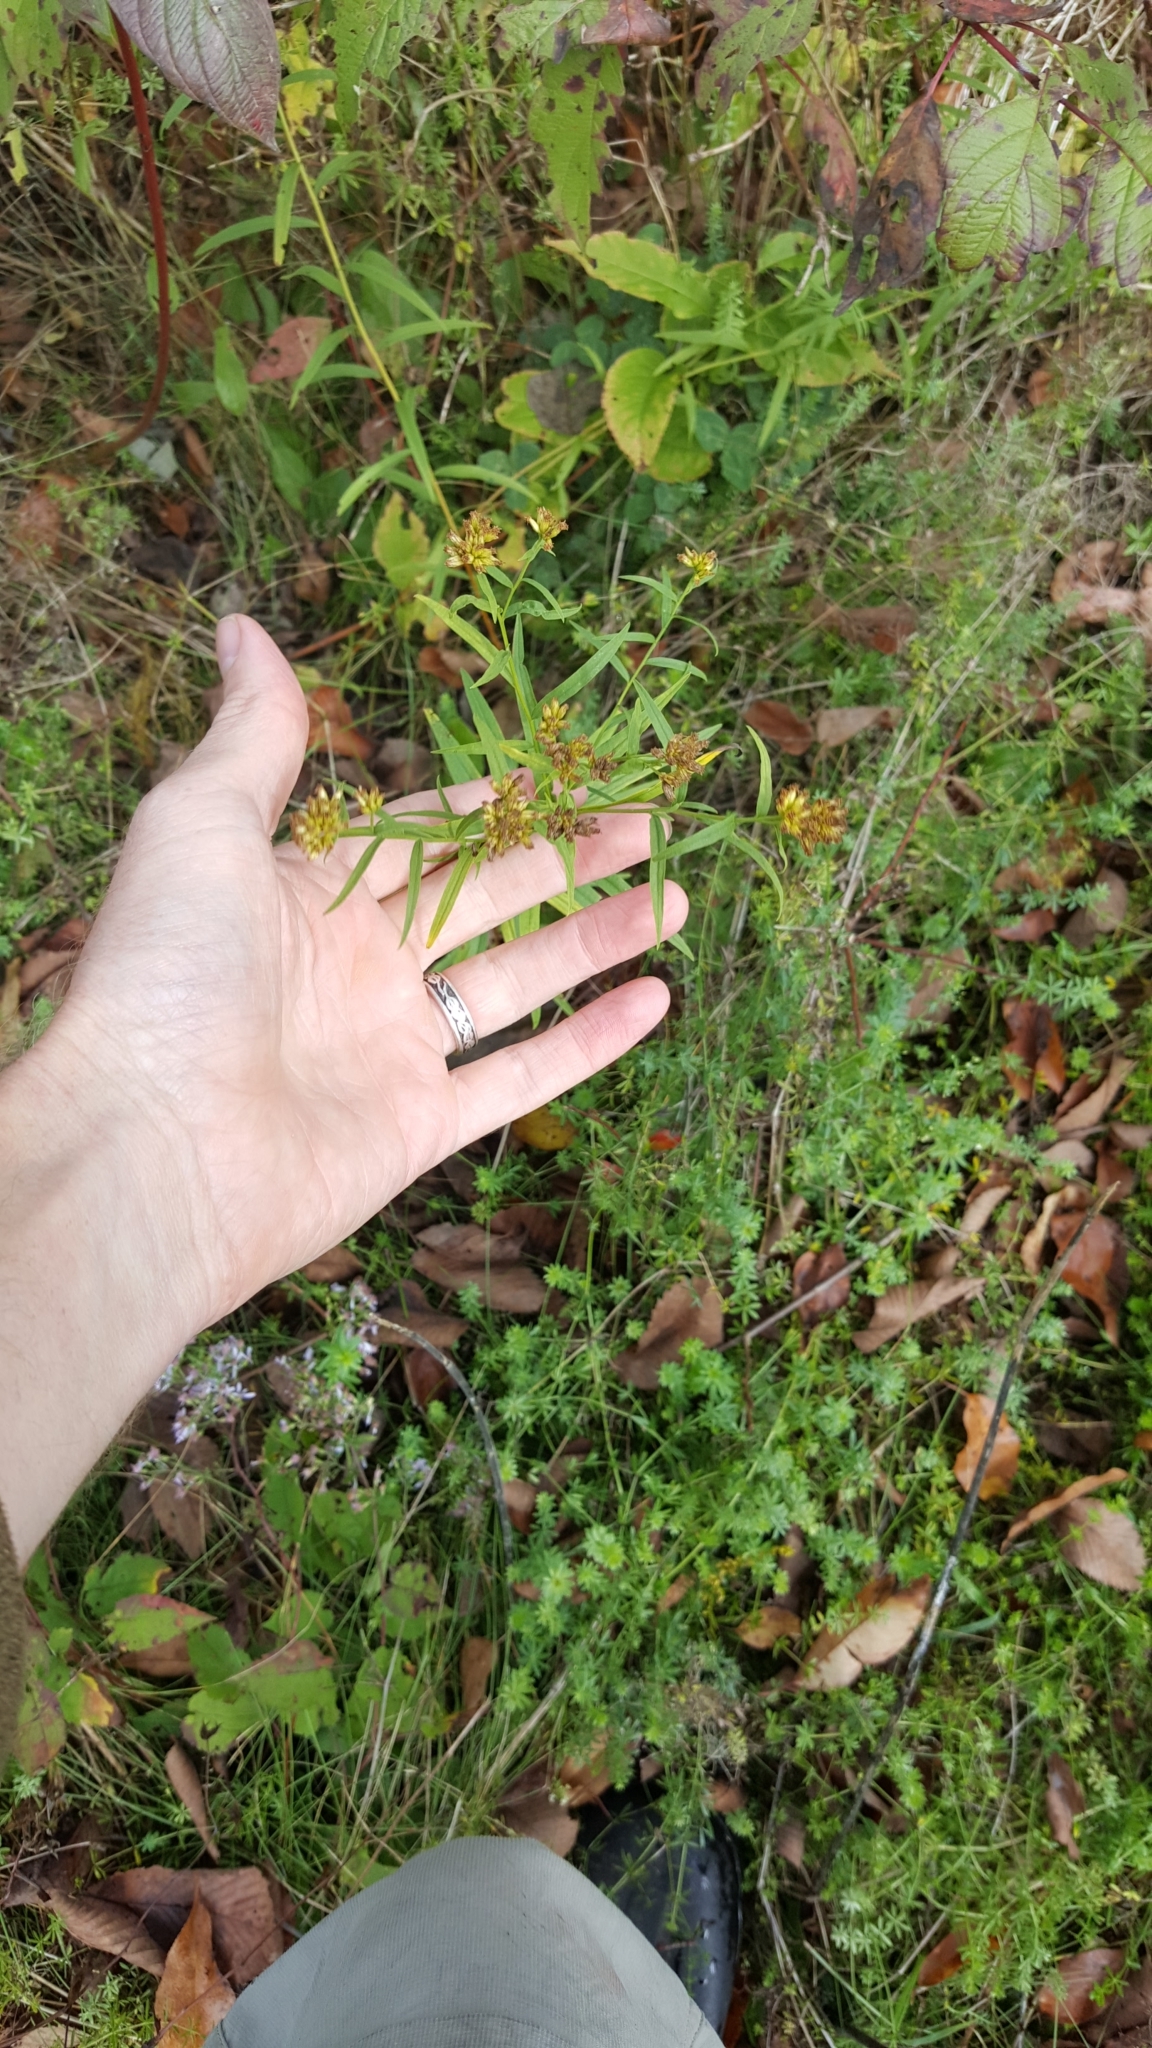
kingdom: Plantae
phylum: Tracheophyta
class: Magnoliopsida
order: Asterales
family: Asteraceae
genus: Euthamia
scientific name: Euthamia graminifolia
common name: Common goldentop
